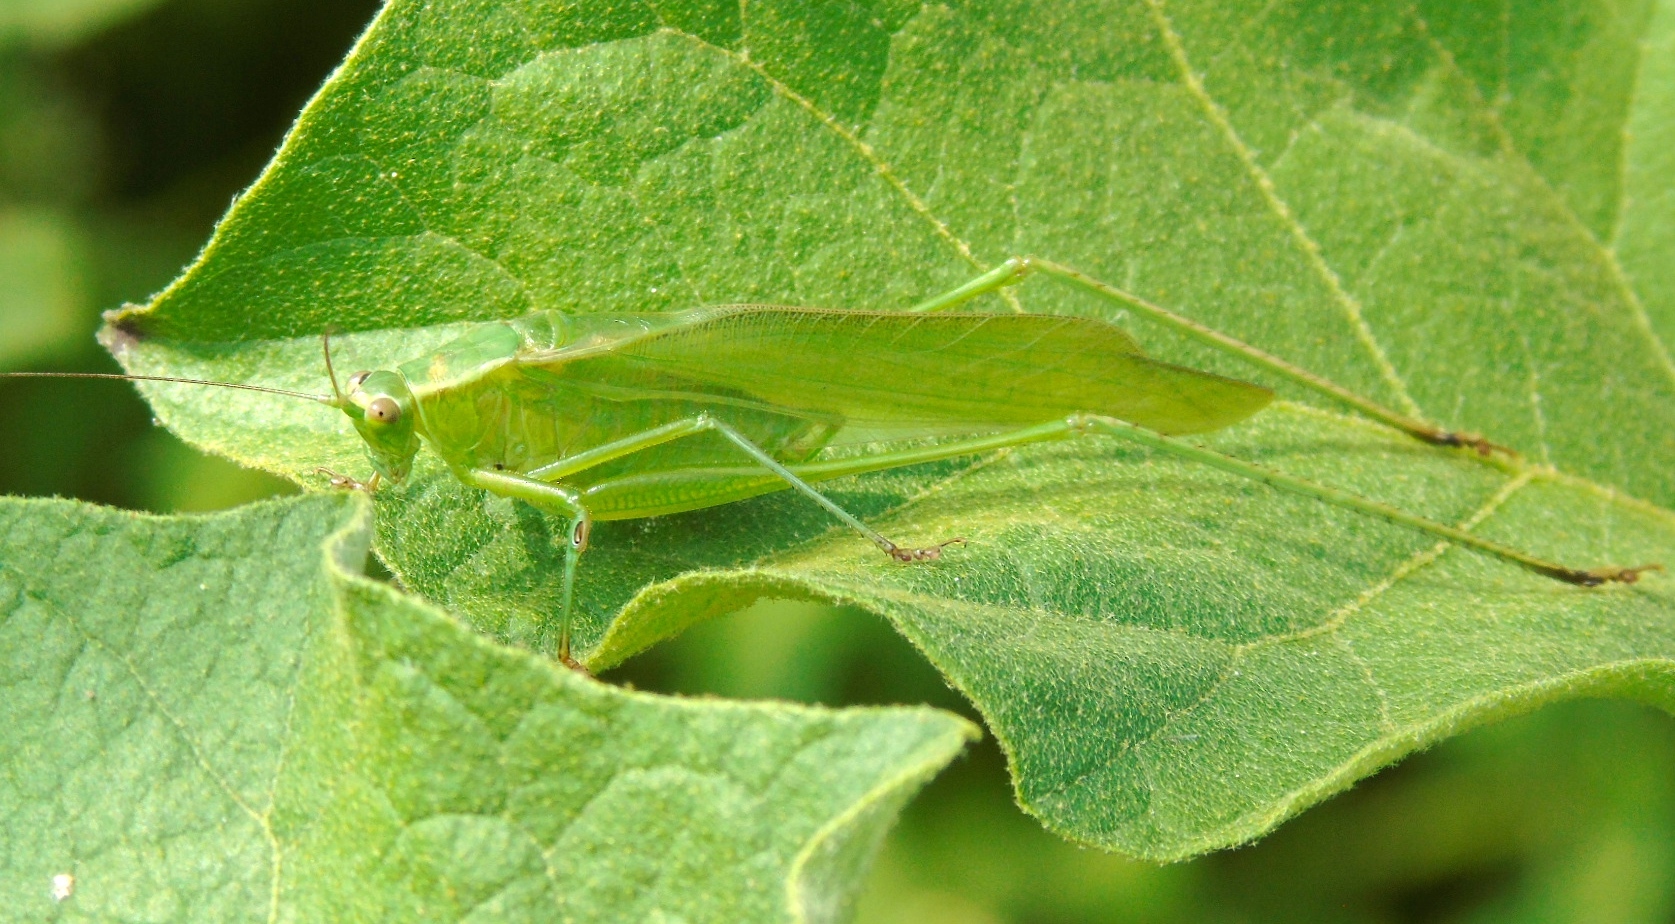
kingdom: Animalia
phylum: Arthropoda
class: Insecta
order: Orthoptera
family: Tettigoniidae
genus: Scudderia
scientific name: Scudderia
